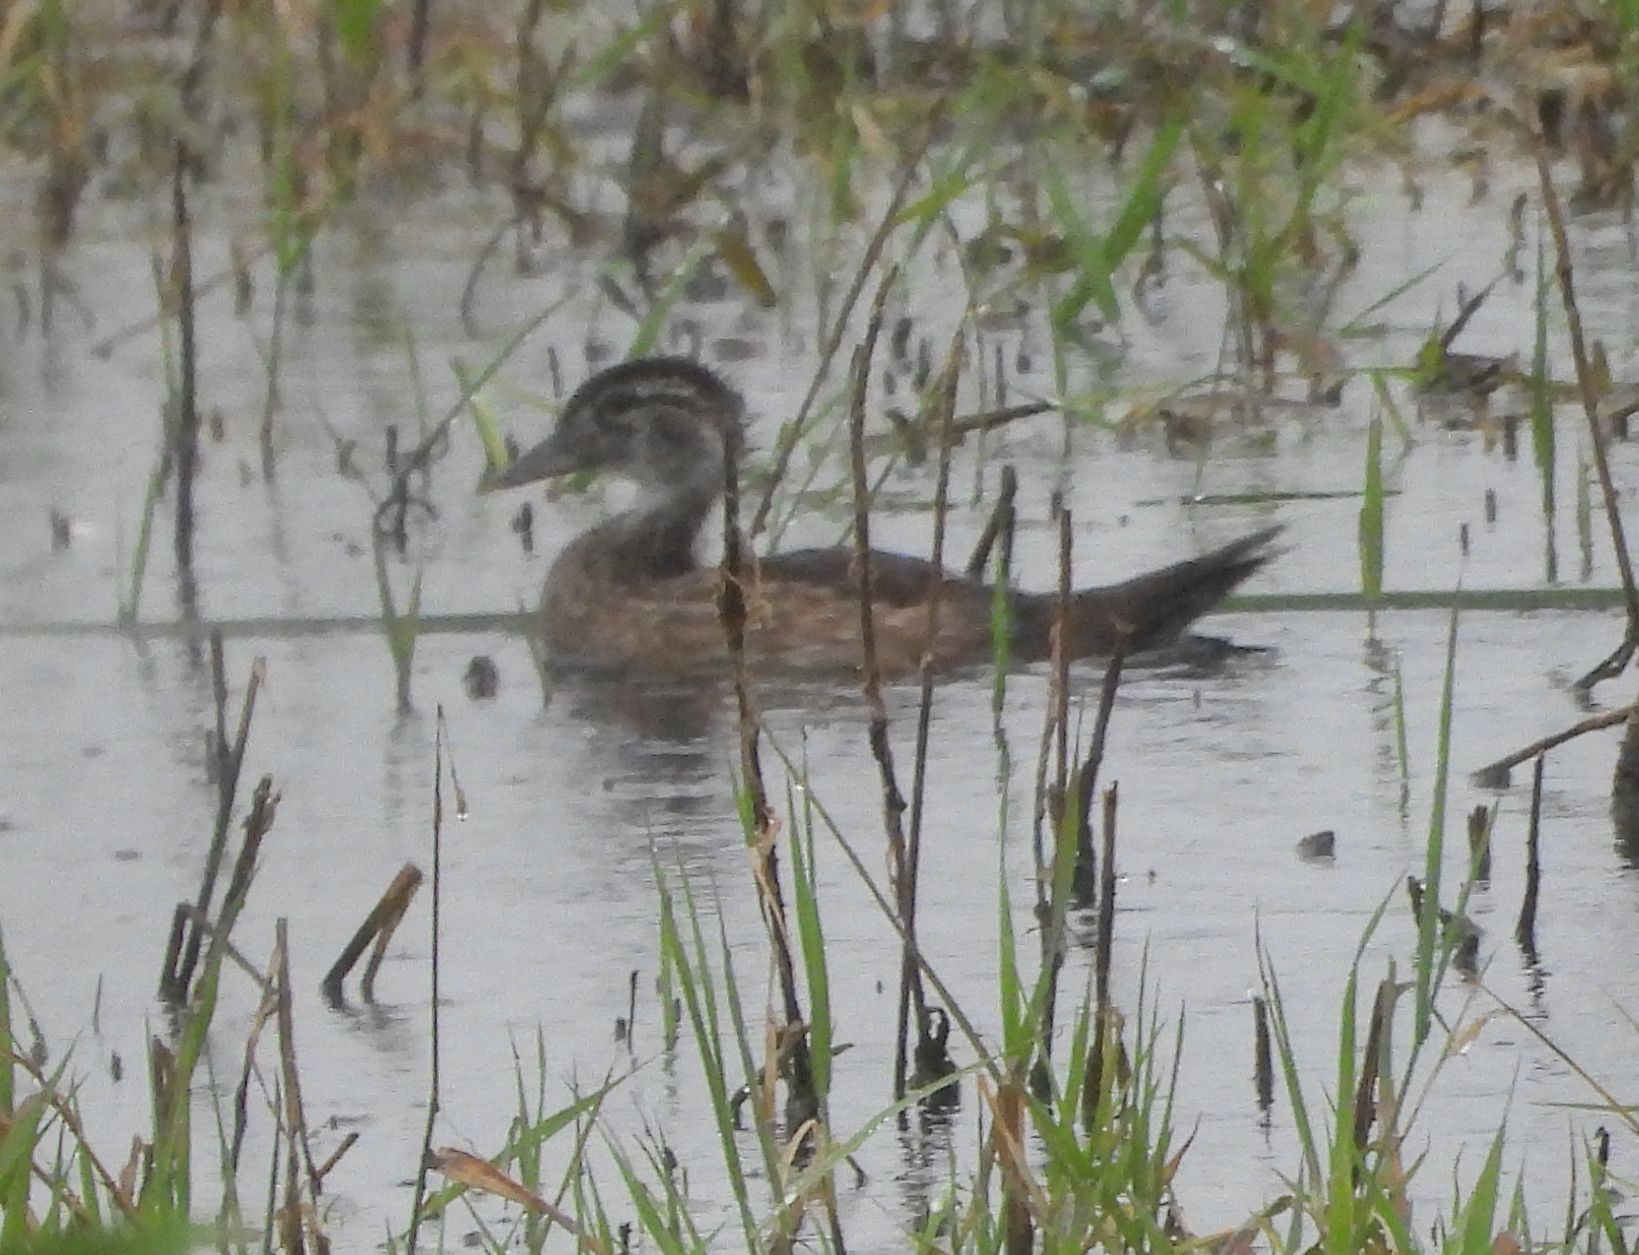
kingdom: Animalia
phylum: Chordata
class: Aves
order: Anseriformes
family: Anatidae
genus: Aix
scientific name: Aix sponsa
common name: Wood duck
